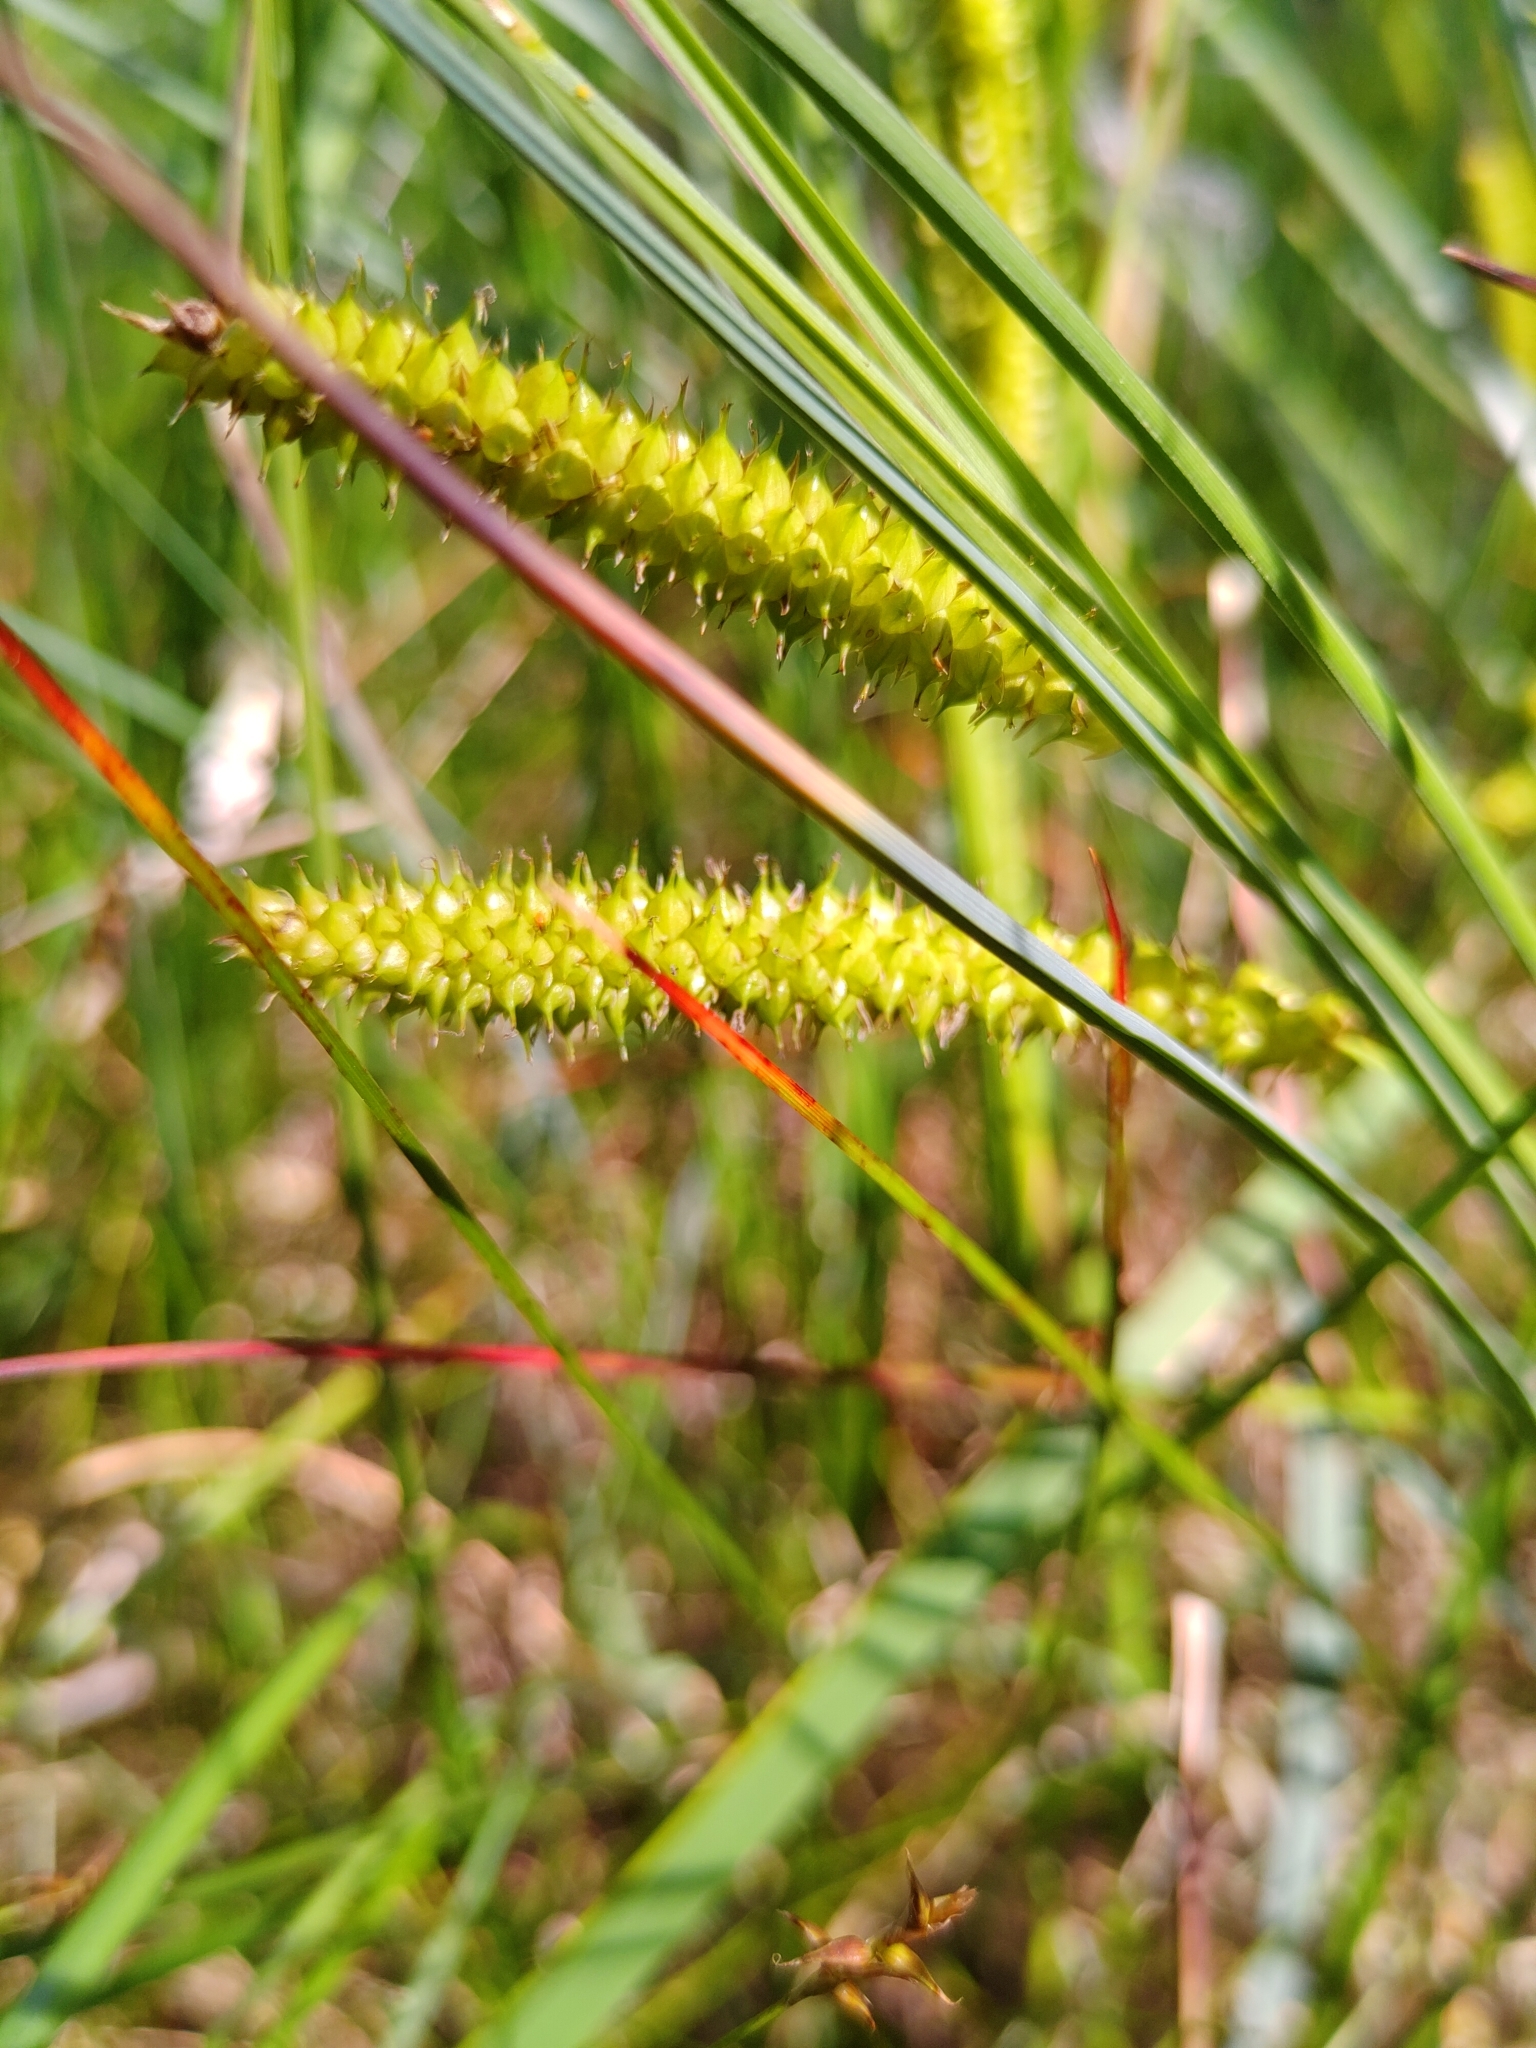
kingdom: Plantae
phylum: Tracheophyta
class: Liliopsida
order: Poales
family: Cyperaceae
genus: Carex
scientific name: Carex rostrata
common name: Bottle sedge
